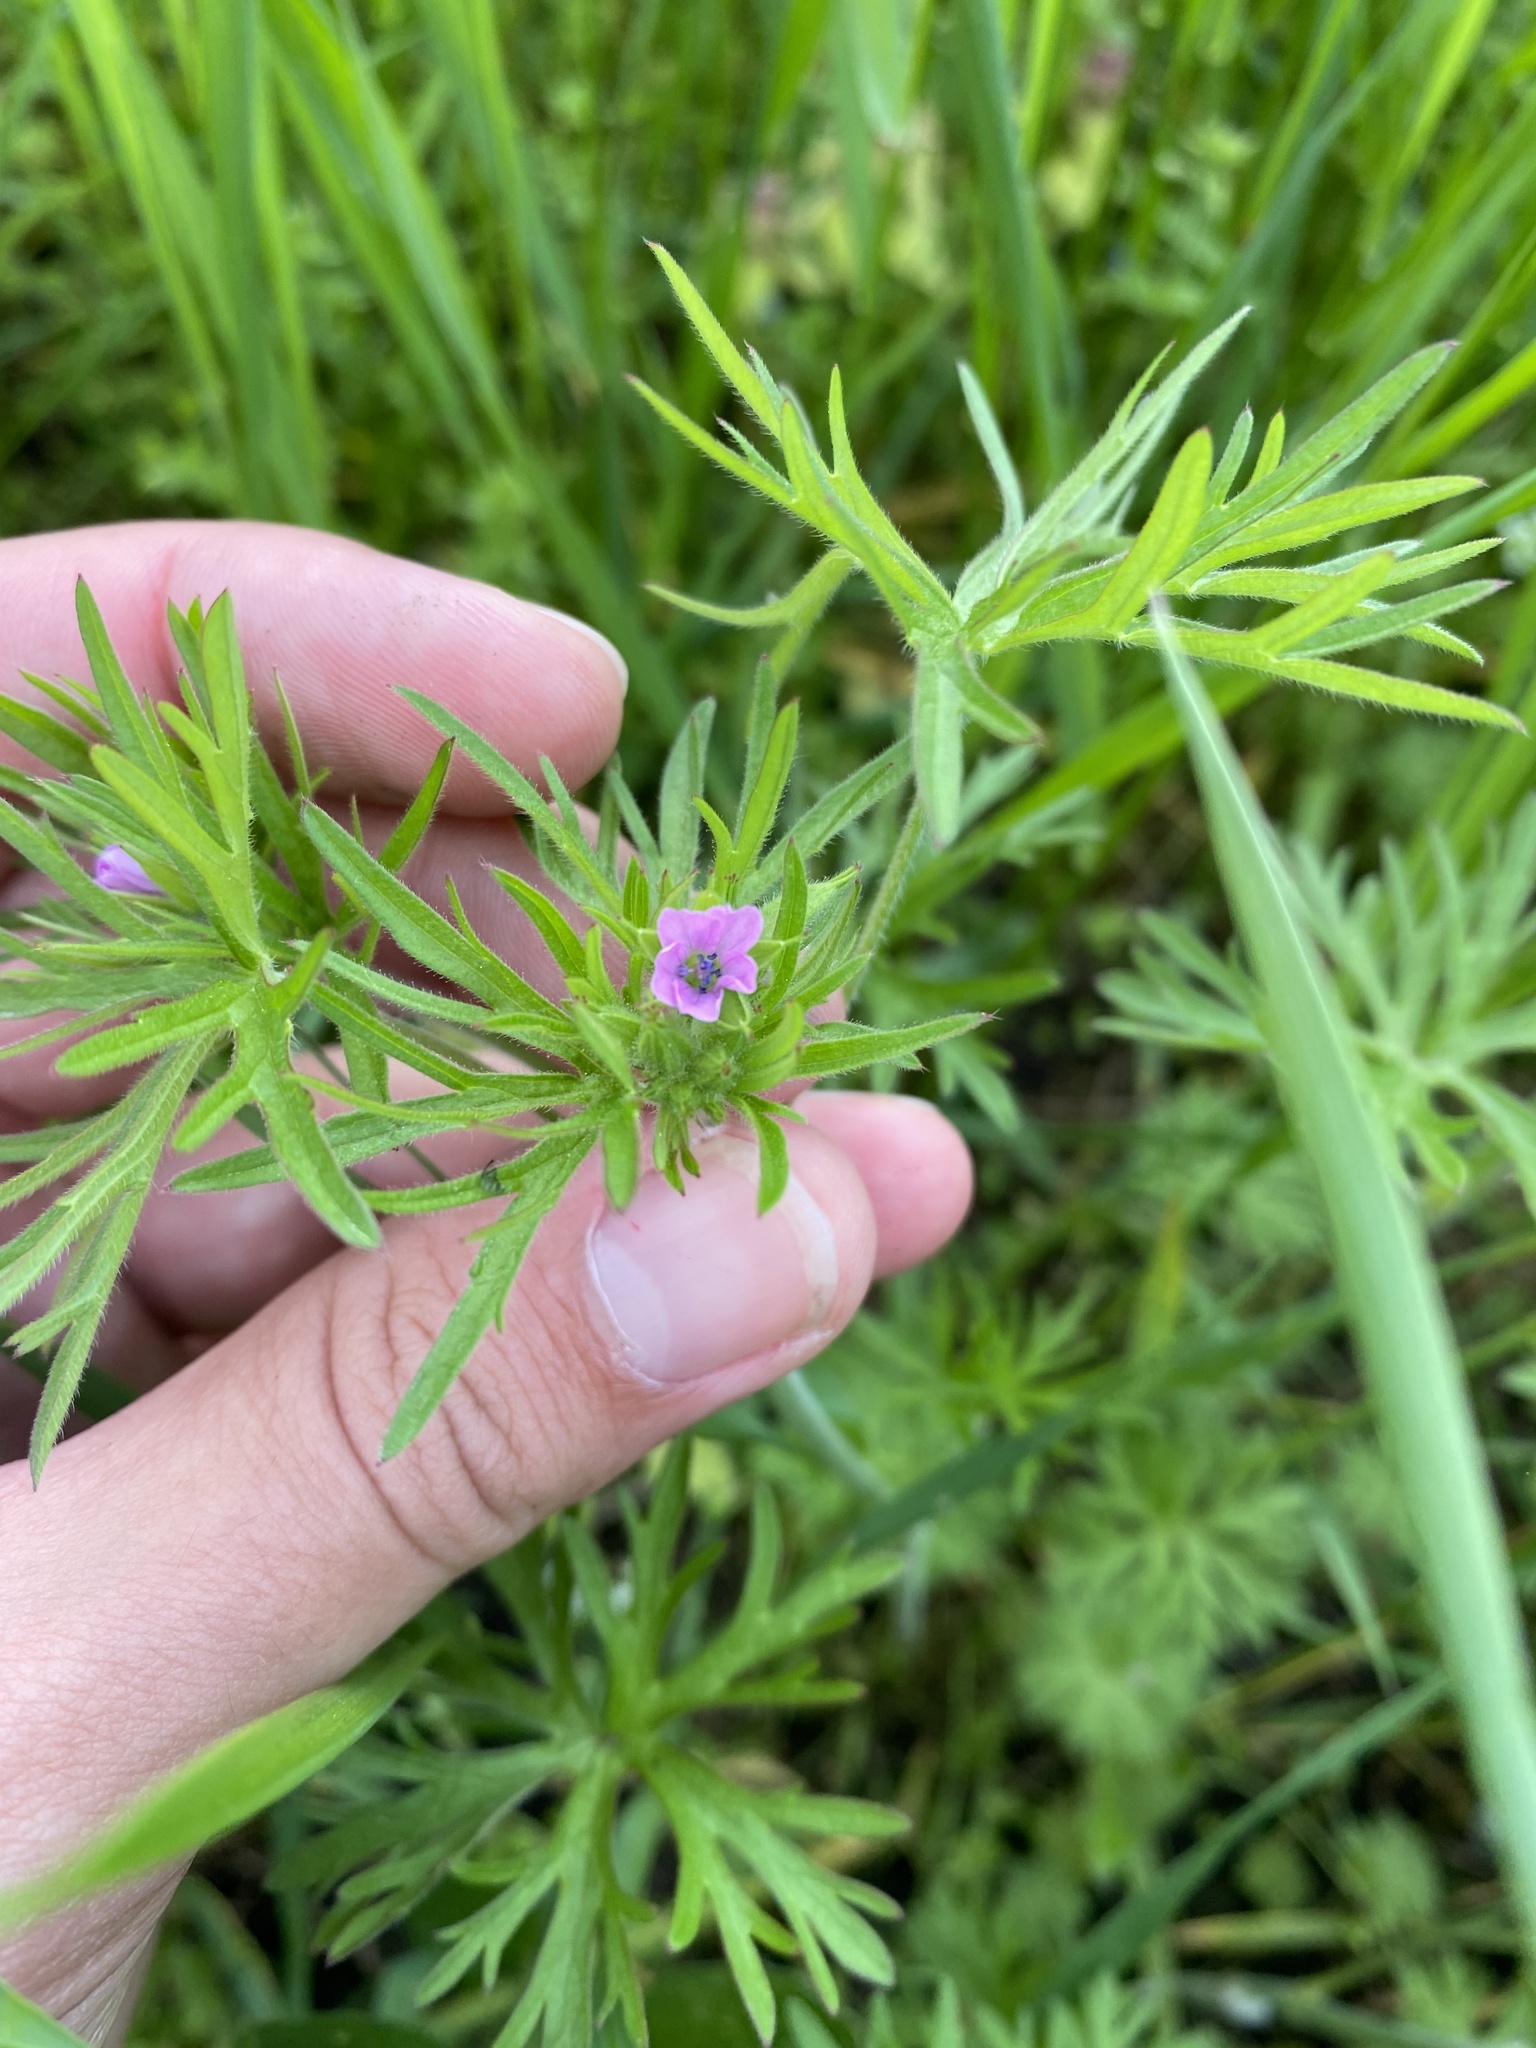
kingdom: Plantae
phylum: Tracheophyta
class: Magnoliopsida
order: Geraniales
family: Geraniaceae
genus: Geranium
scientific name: Geranium dissectum
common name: Cut-leaved crane's-bill
